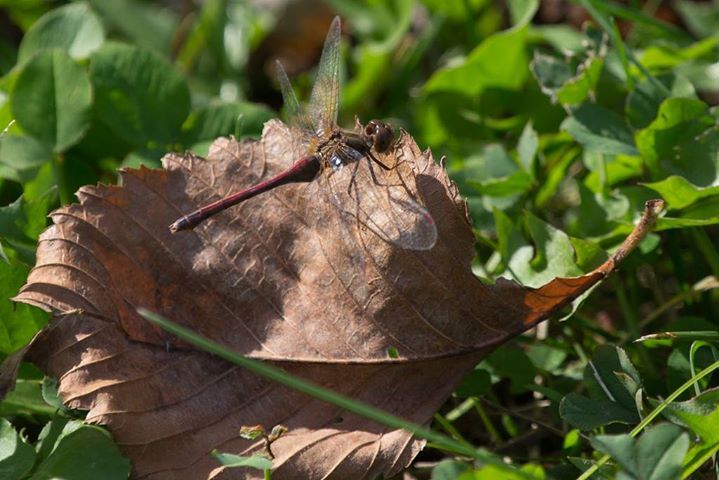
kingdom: Animalia
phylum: Arthropoda
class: Insecta
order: Odonata
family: Libellulidae
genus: Sympetrum
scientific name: Sympetrum vicinum
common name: Autumn meadowhawk
